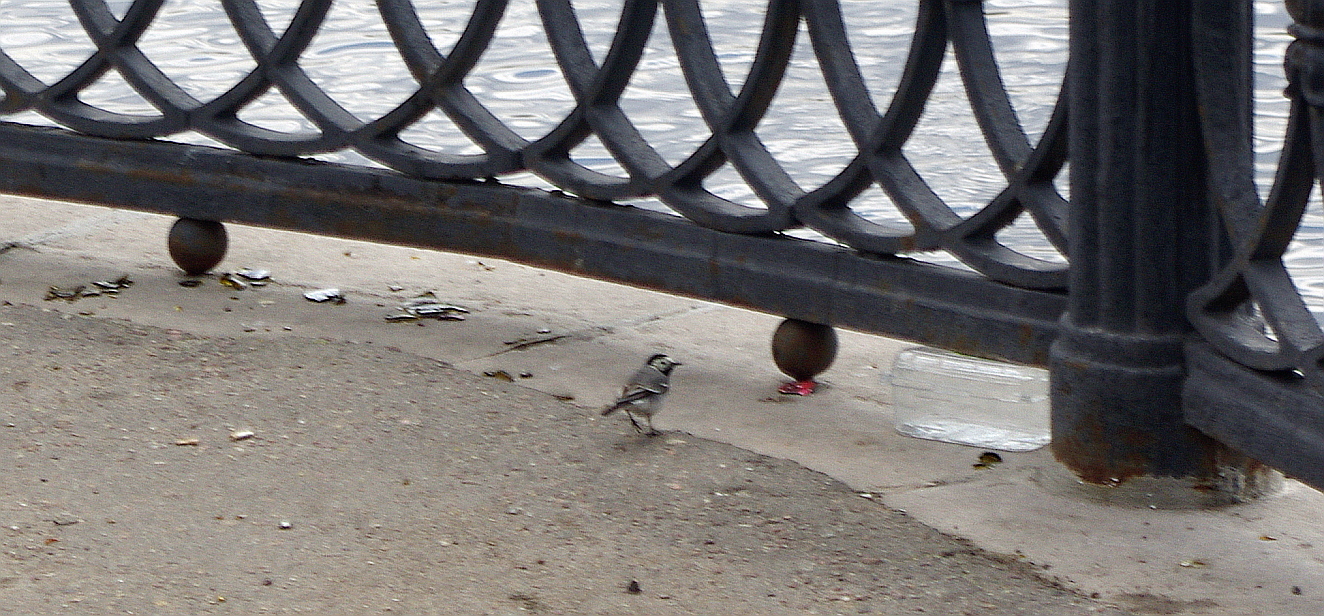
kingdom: Animalia
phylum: Chordata
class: Aves
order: Passeriformes
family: Motacillidae
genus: Motacilla
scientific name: Motacilla alba
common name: White wagtail
